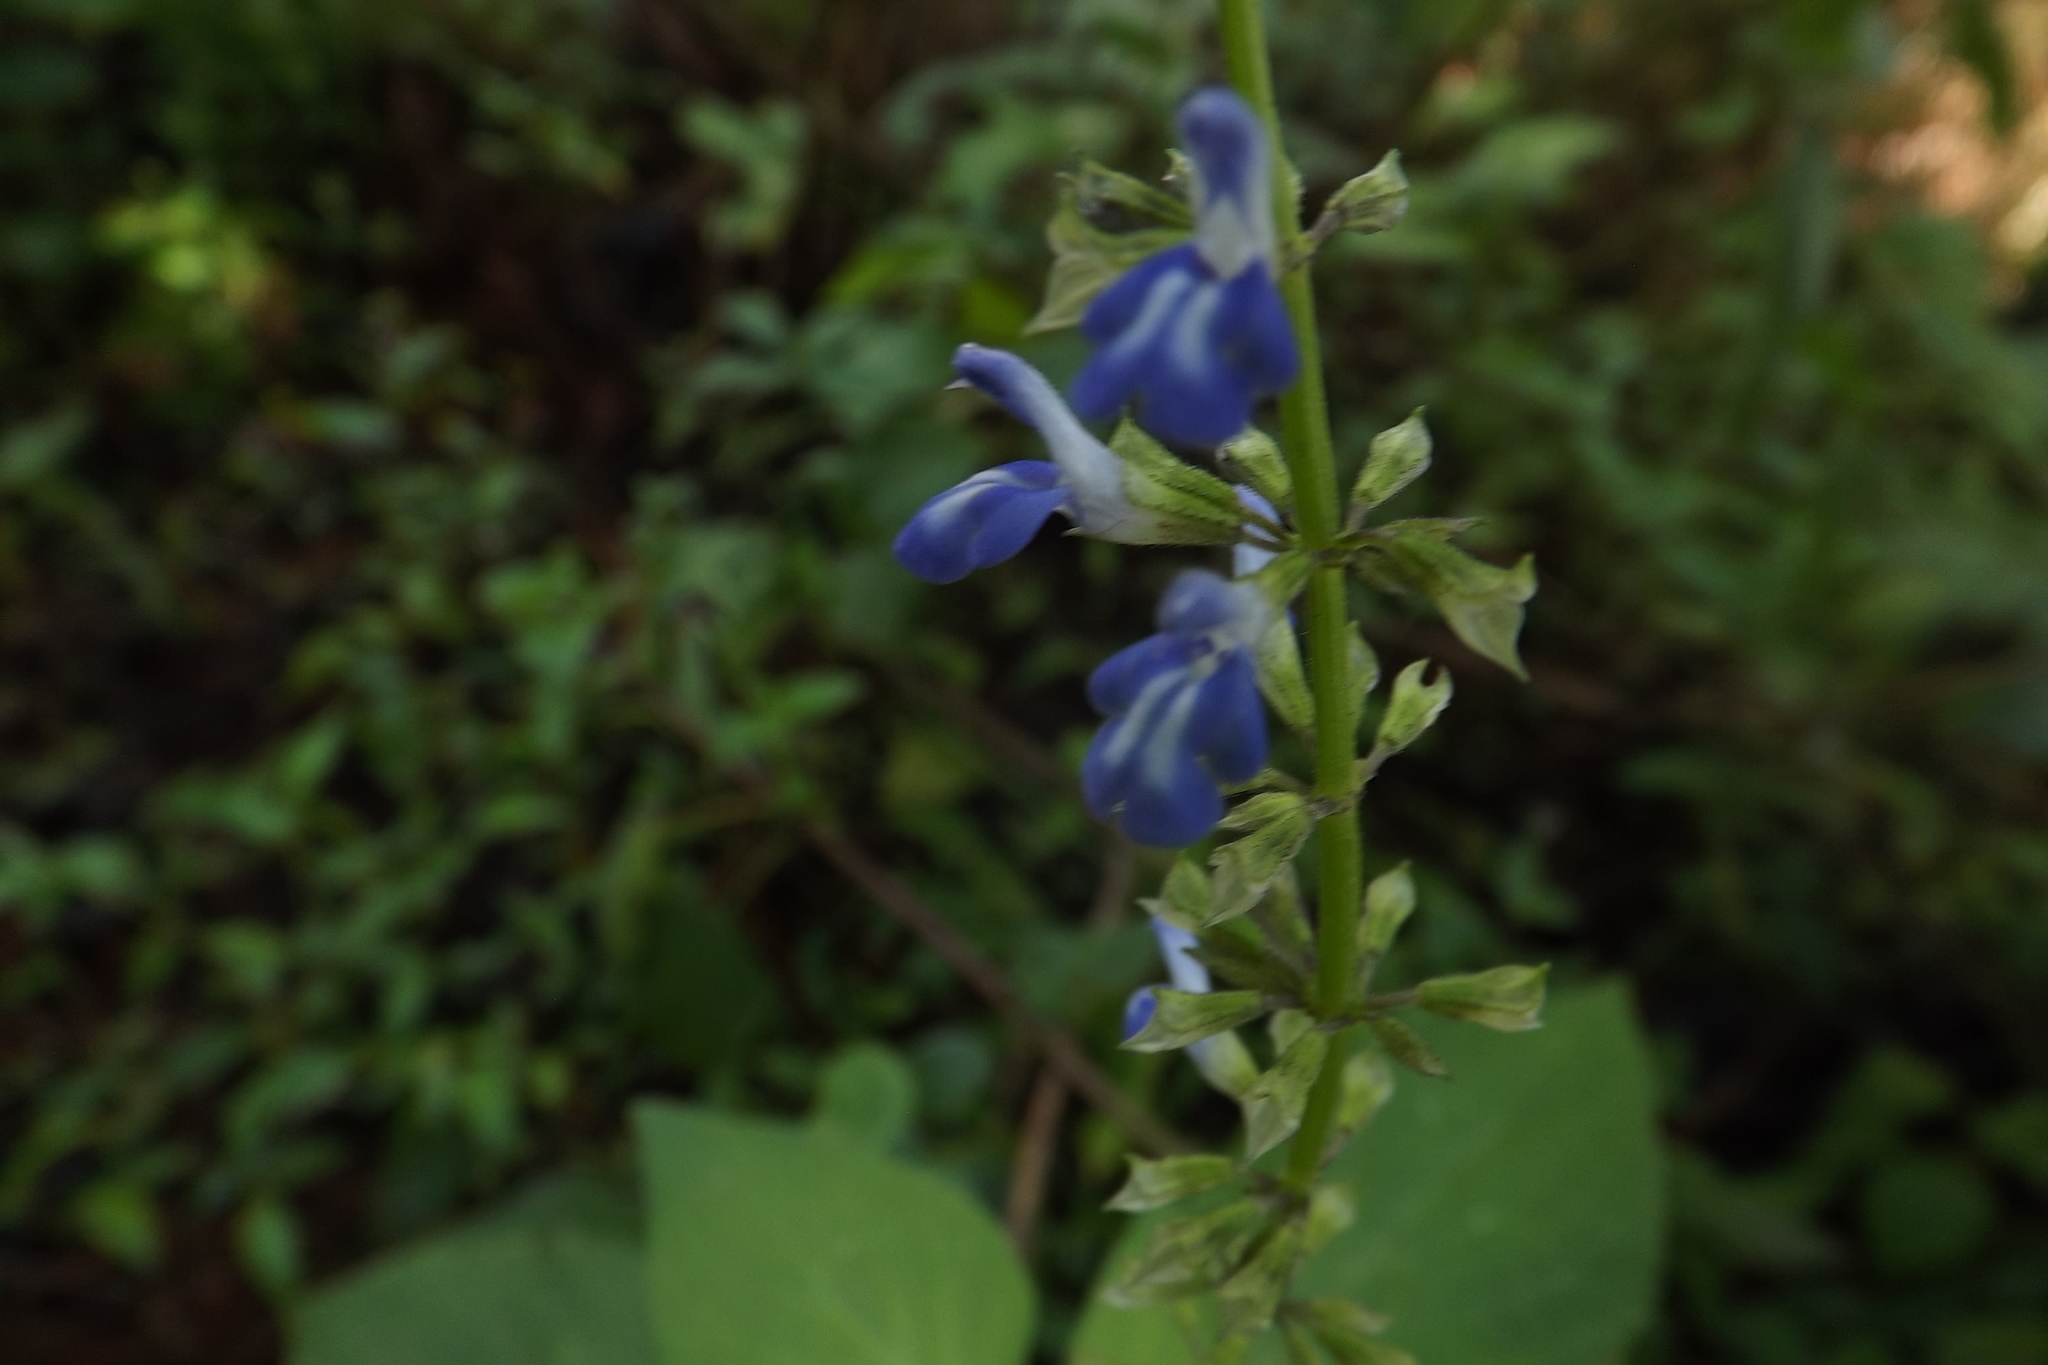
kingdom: Plantae
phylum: Tracheophyta
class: Magnoliopsida
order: Lamiales
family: Lamiaceae
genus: Salvia
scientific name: Salvia longispicata
